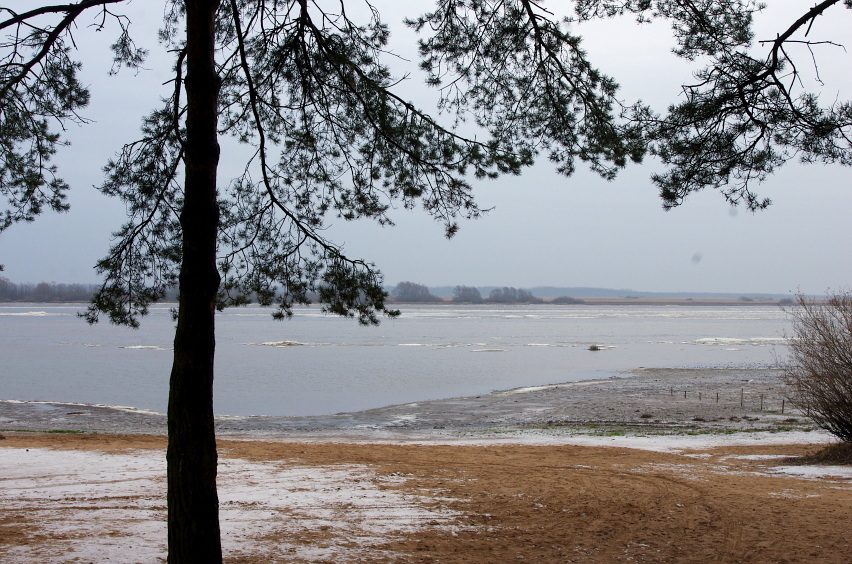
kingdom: Plantae
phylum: Tracheophyta
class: Pinopsida
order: Pinales
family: Pinaceae
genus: Pinus
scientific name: Pinus sylvestris
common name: Scots pine
